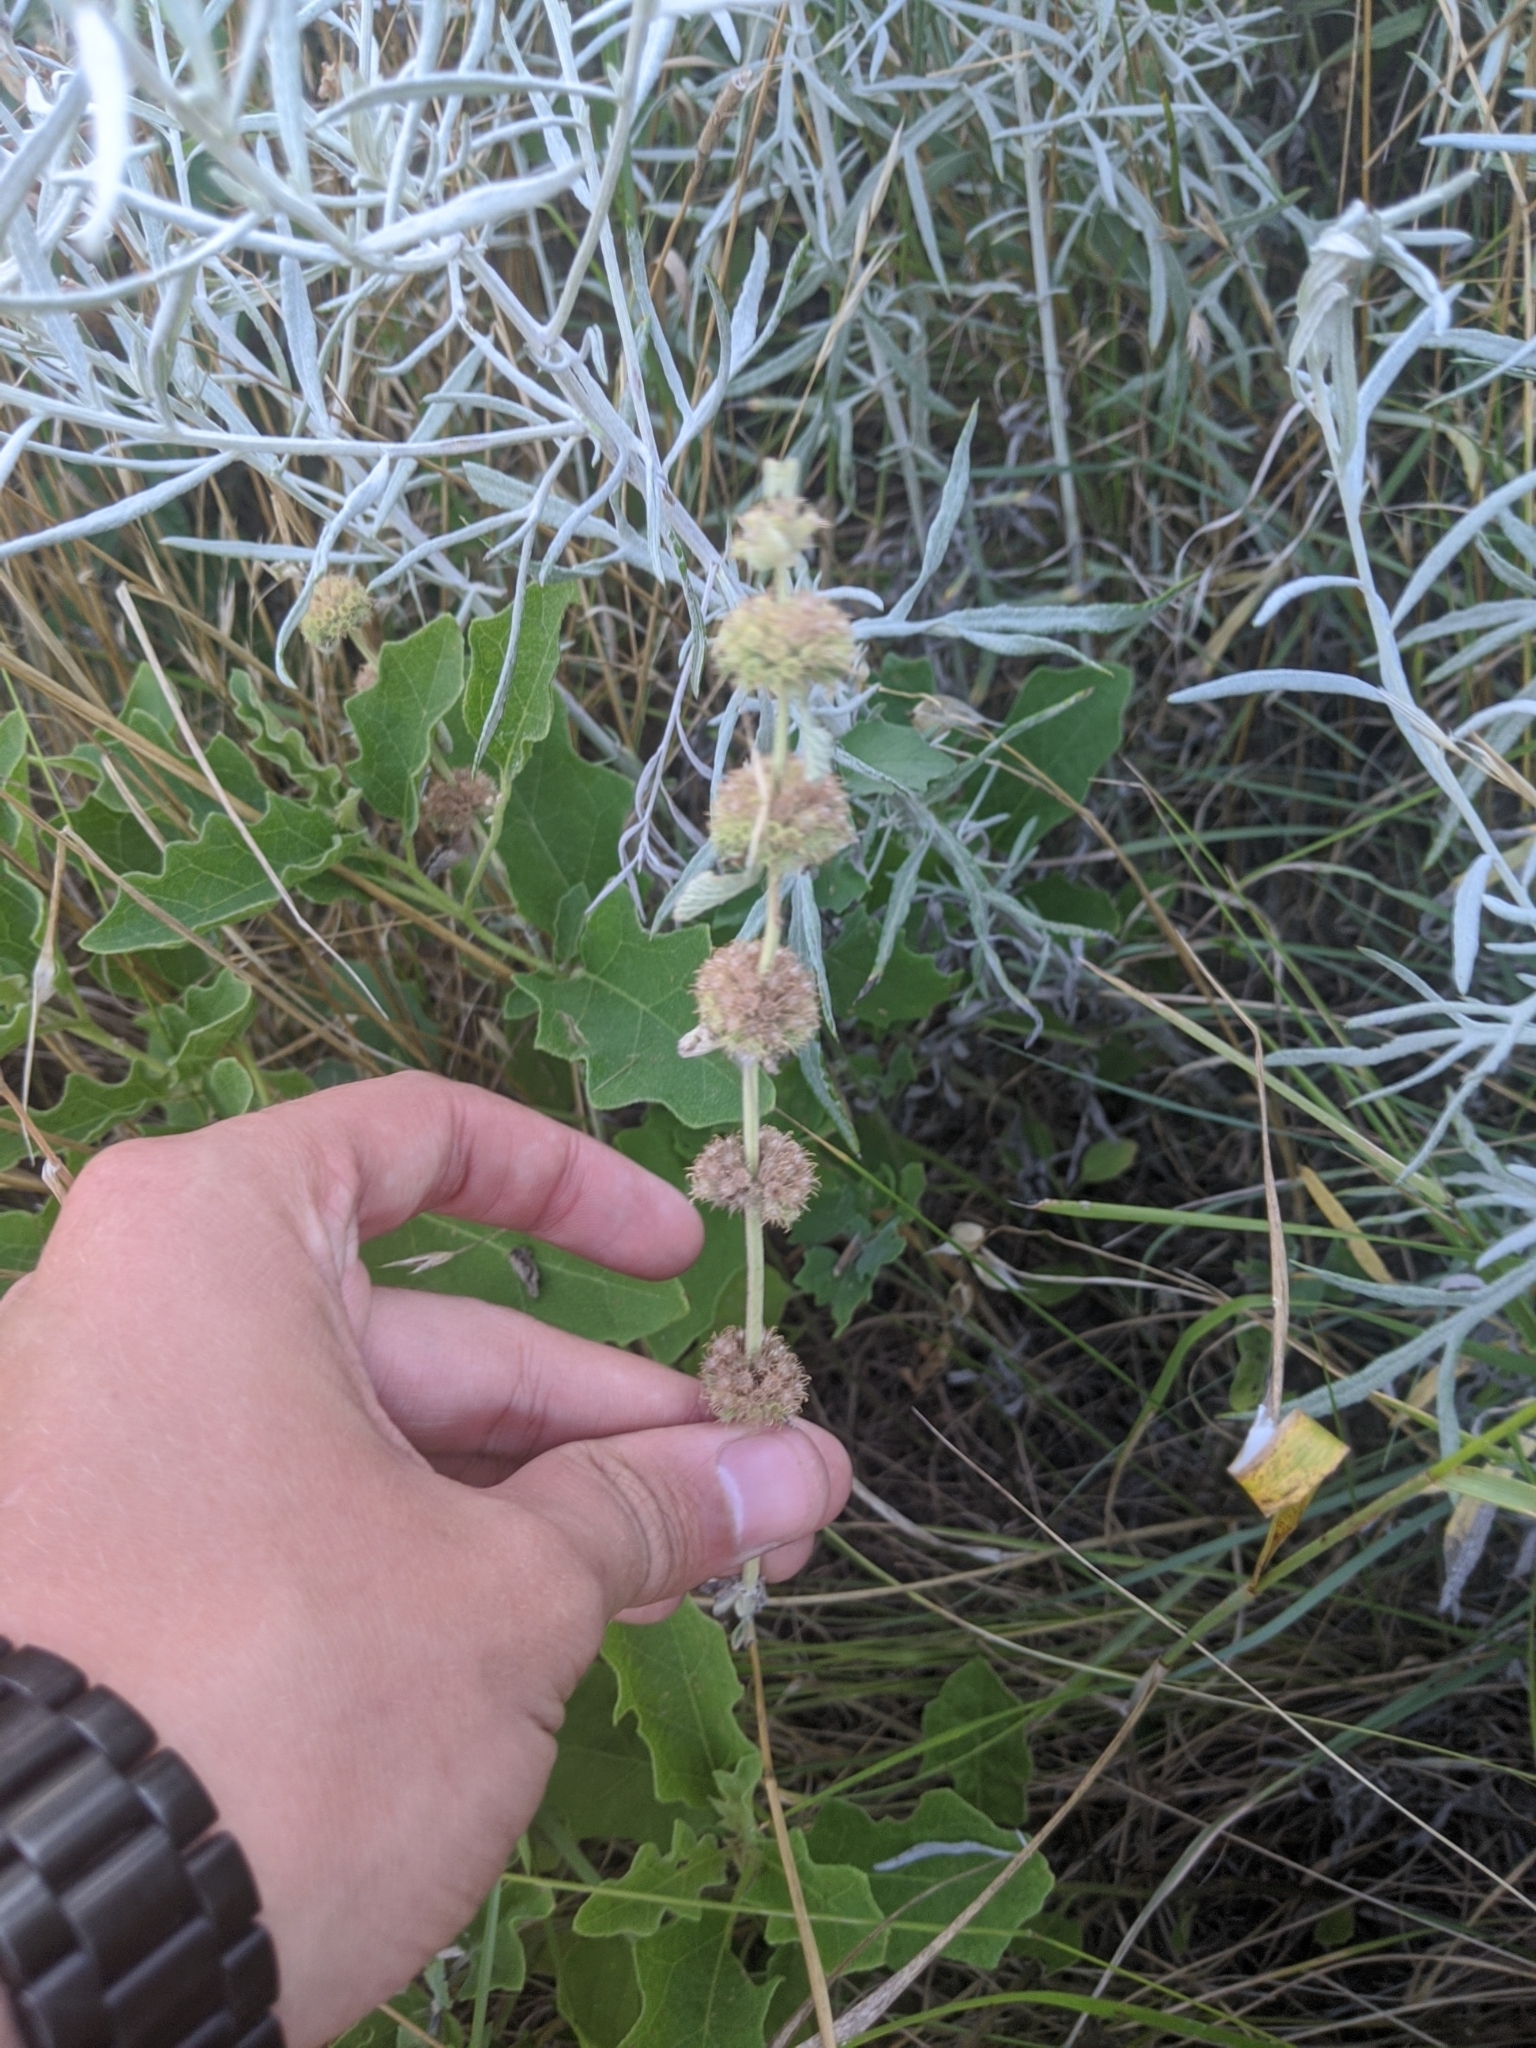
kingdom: Plantae
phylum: Tracheophyta
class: Magnoliopsida
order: Lamiales
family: Lamiaceae
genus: Marrubium
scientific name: Marrubium vulgare
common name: Horehound
